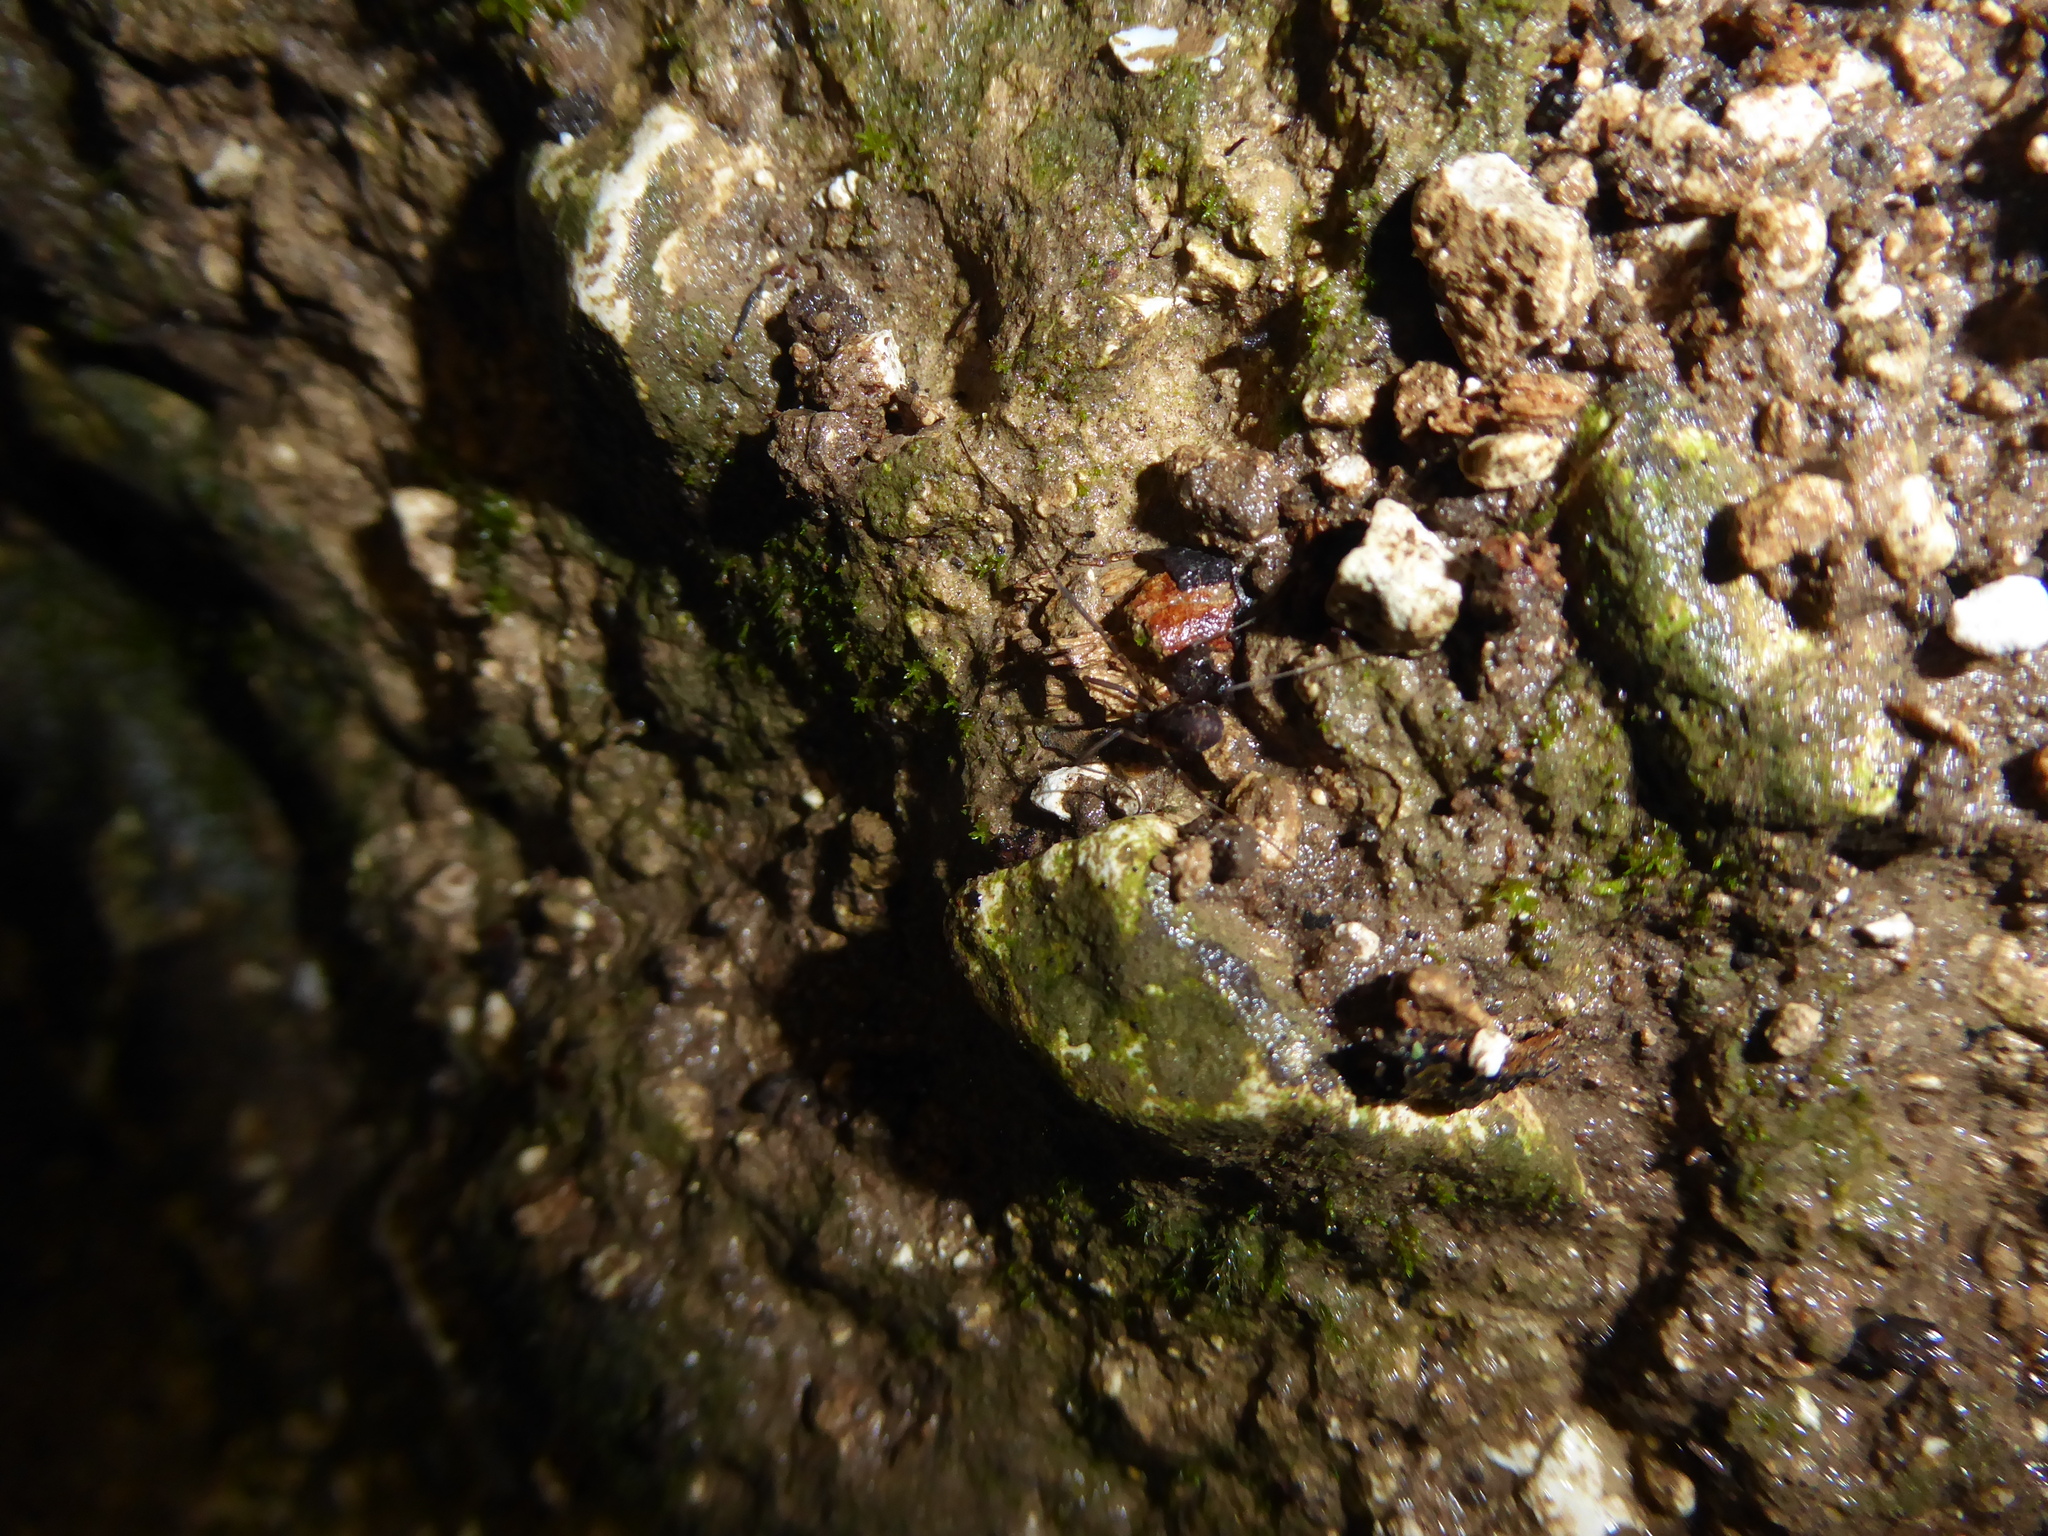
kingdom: Animalia
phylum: Arthropoda
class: Arachnida
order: Opiliones
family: Phalangiidae
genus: Dicranopalpus
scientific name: Dicranopalpus larvatus
